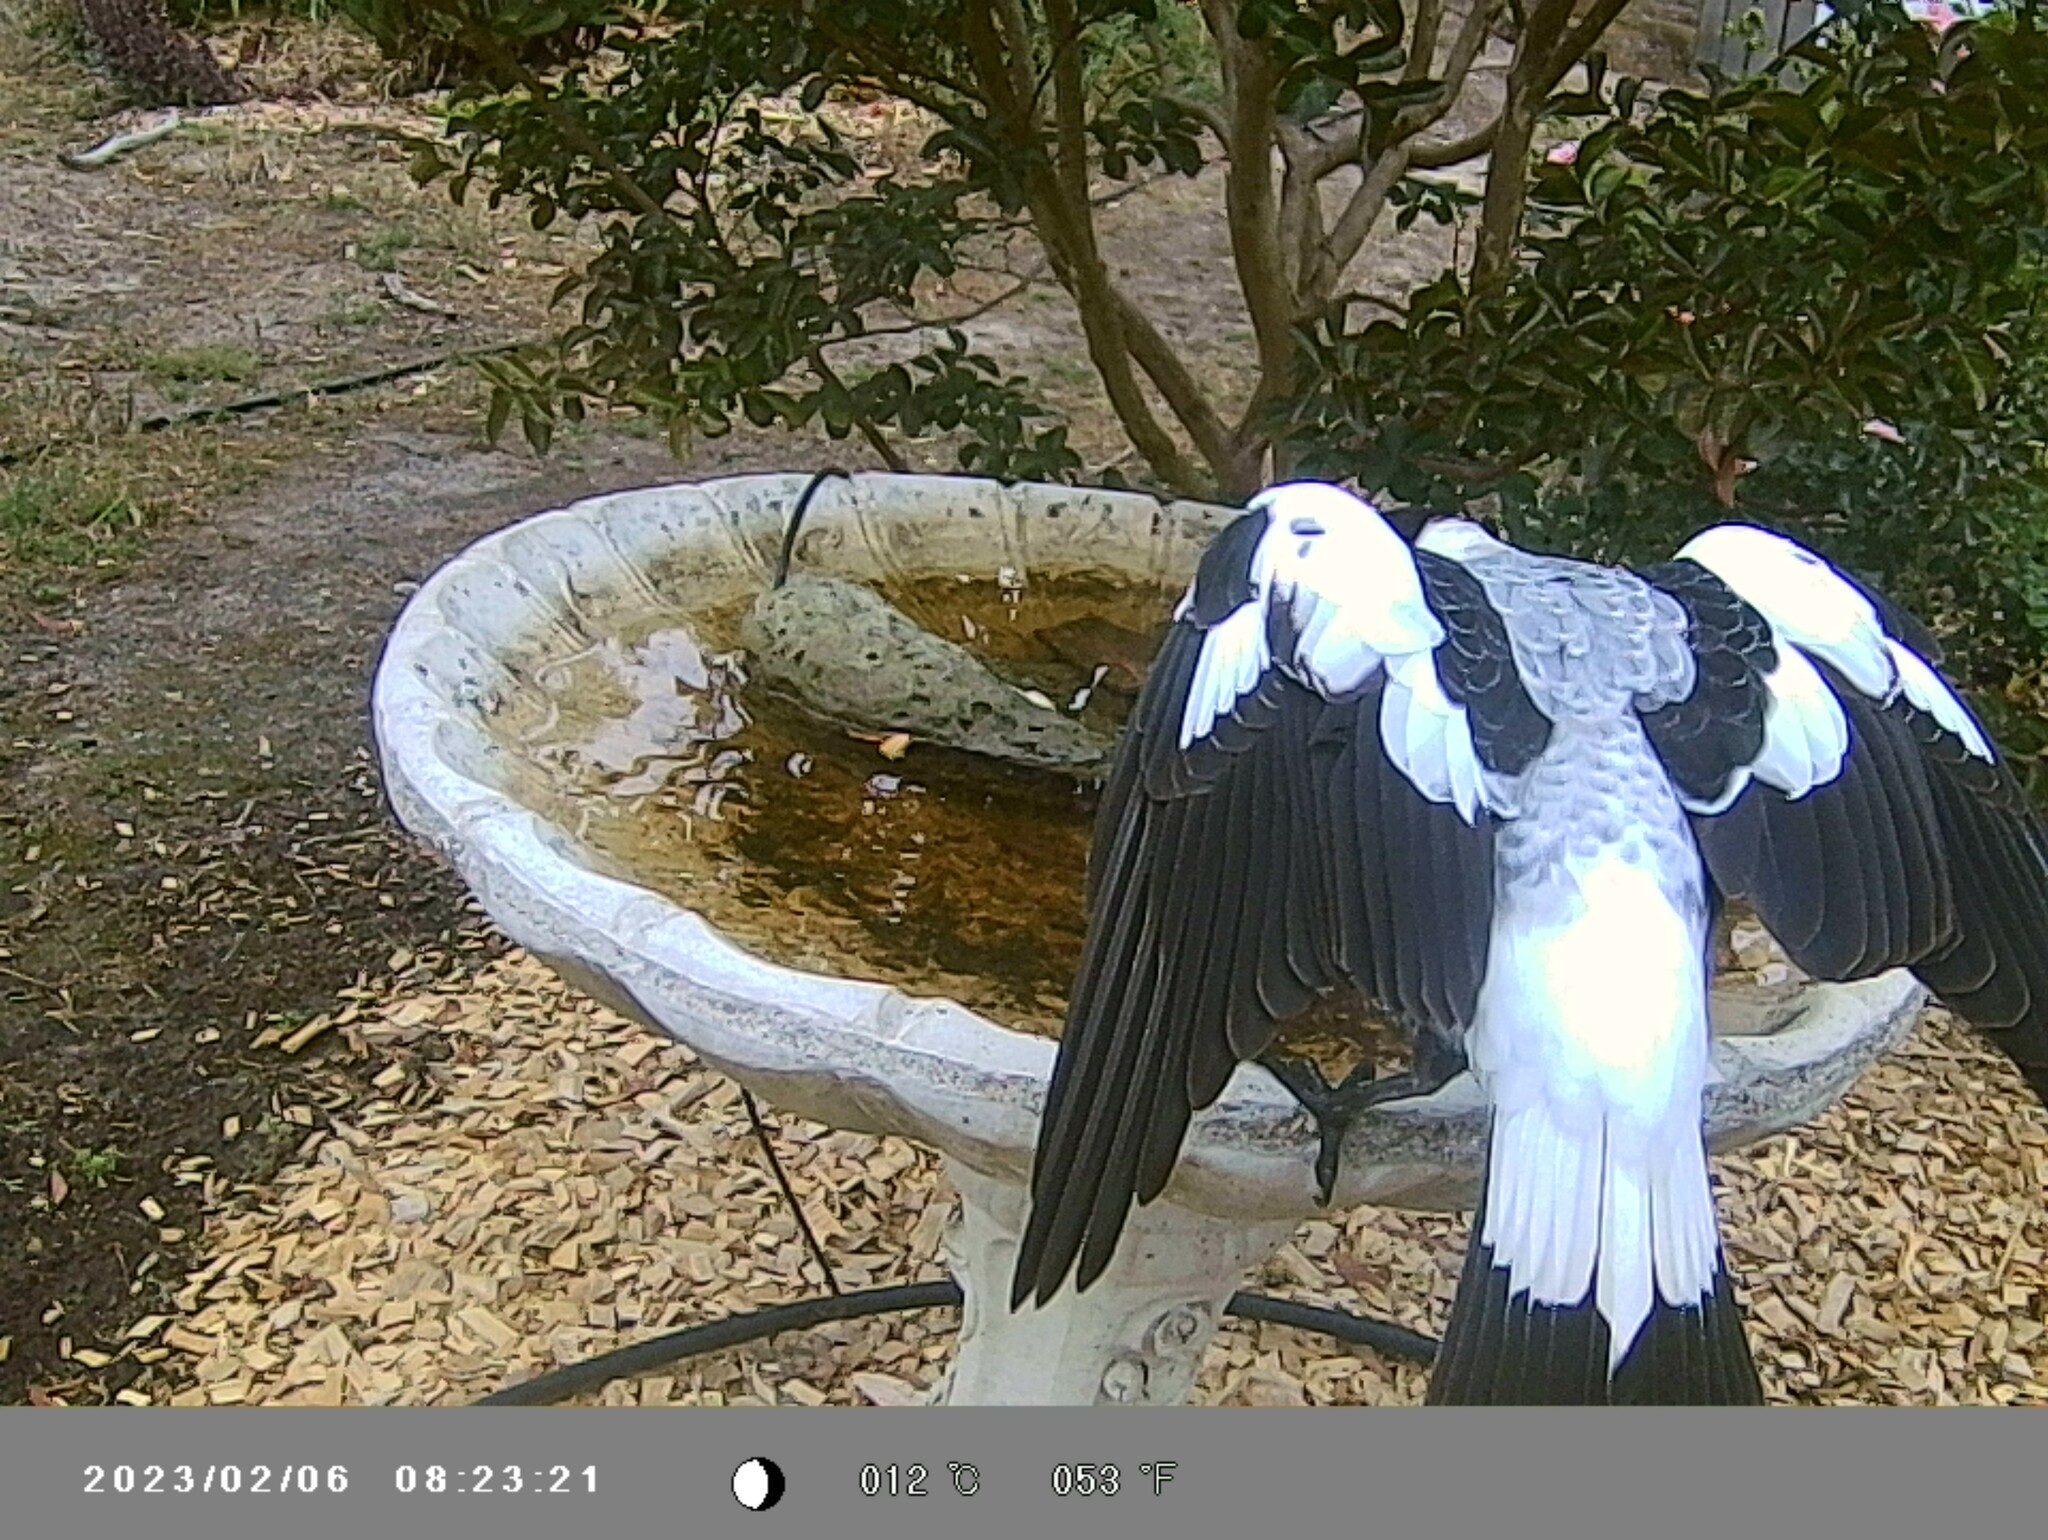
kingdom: Animalia
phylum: Chordata
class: Aves
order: Passeriformes
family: Cracticidae
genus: Gymnorhina
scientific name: Gymnorhina tibicen
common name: Australian magpie
